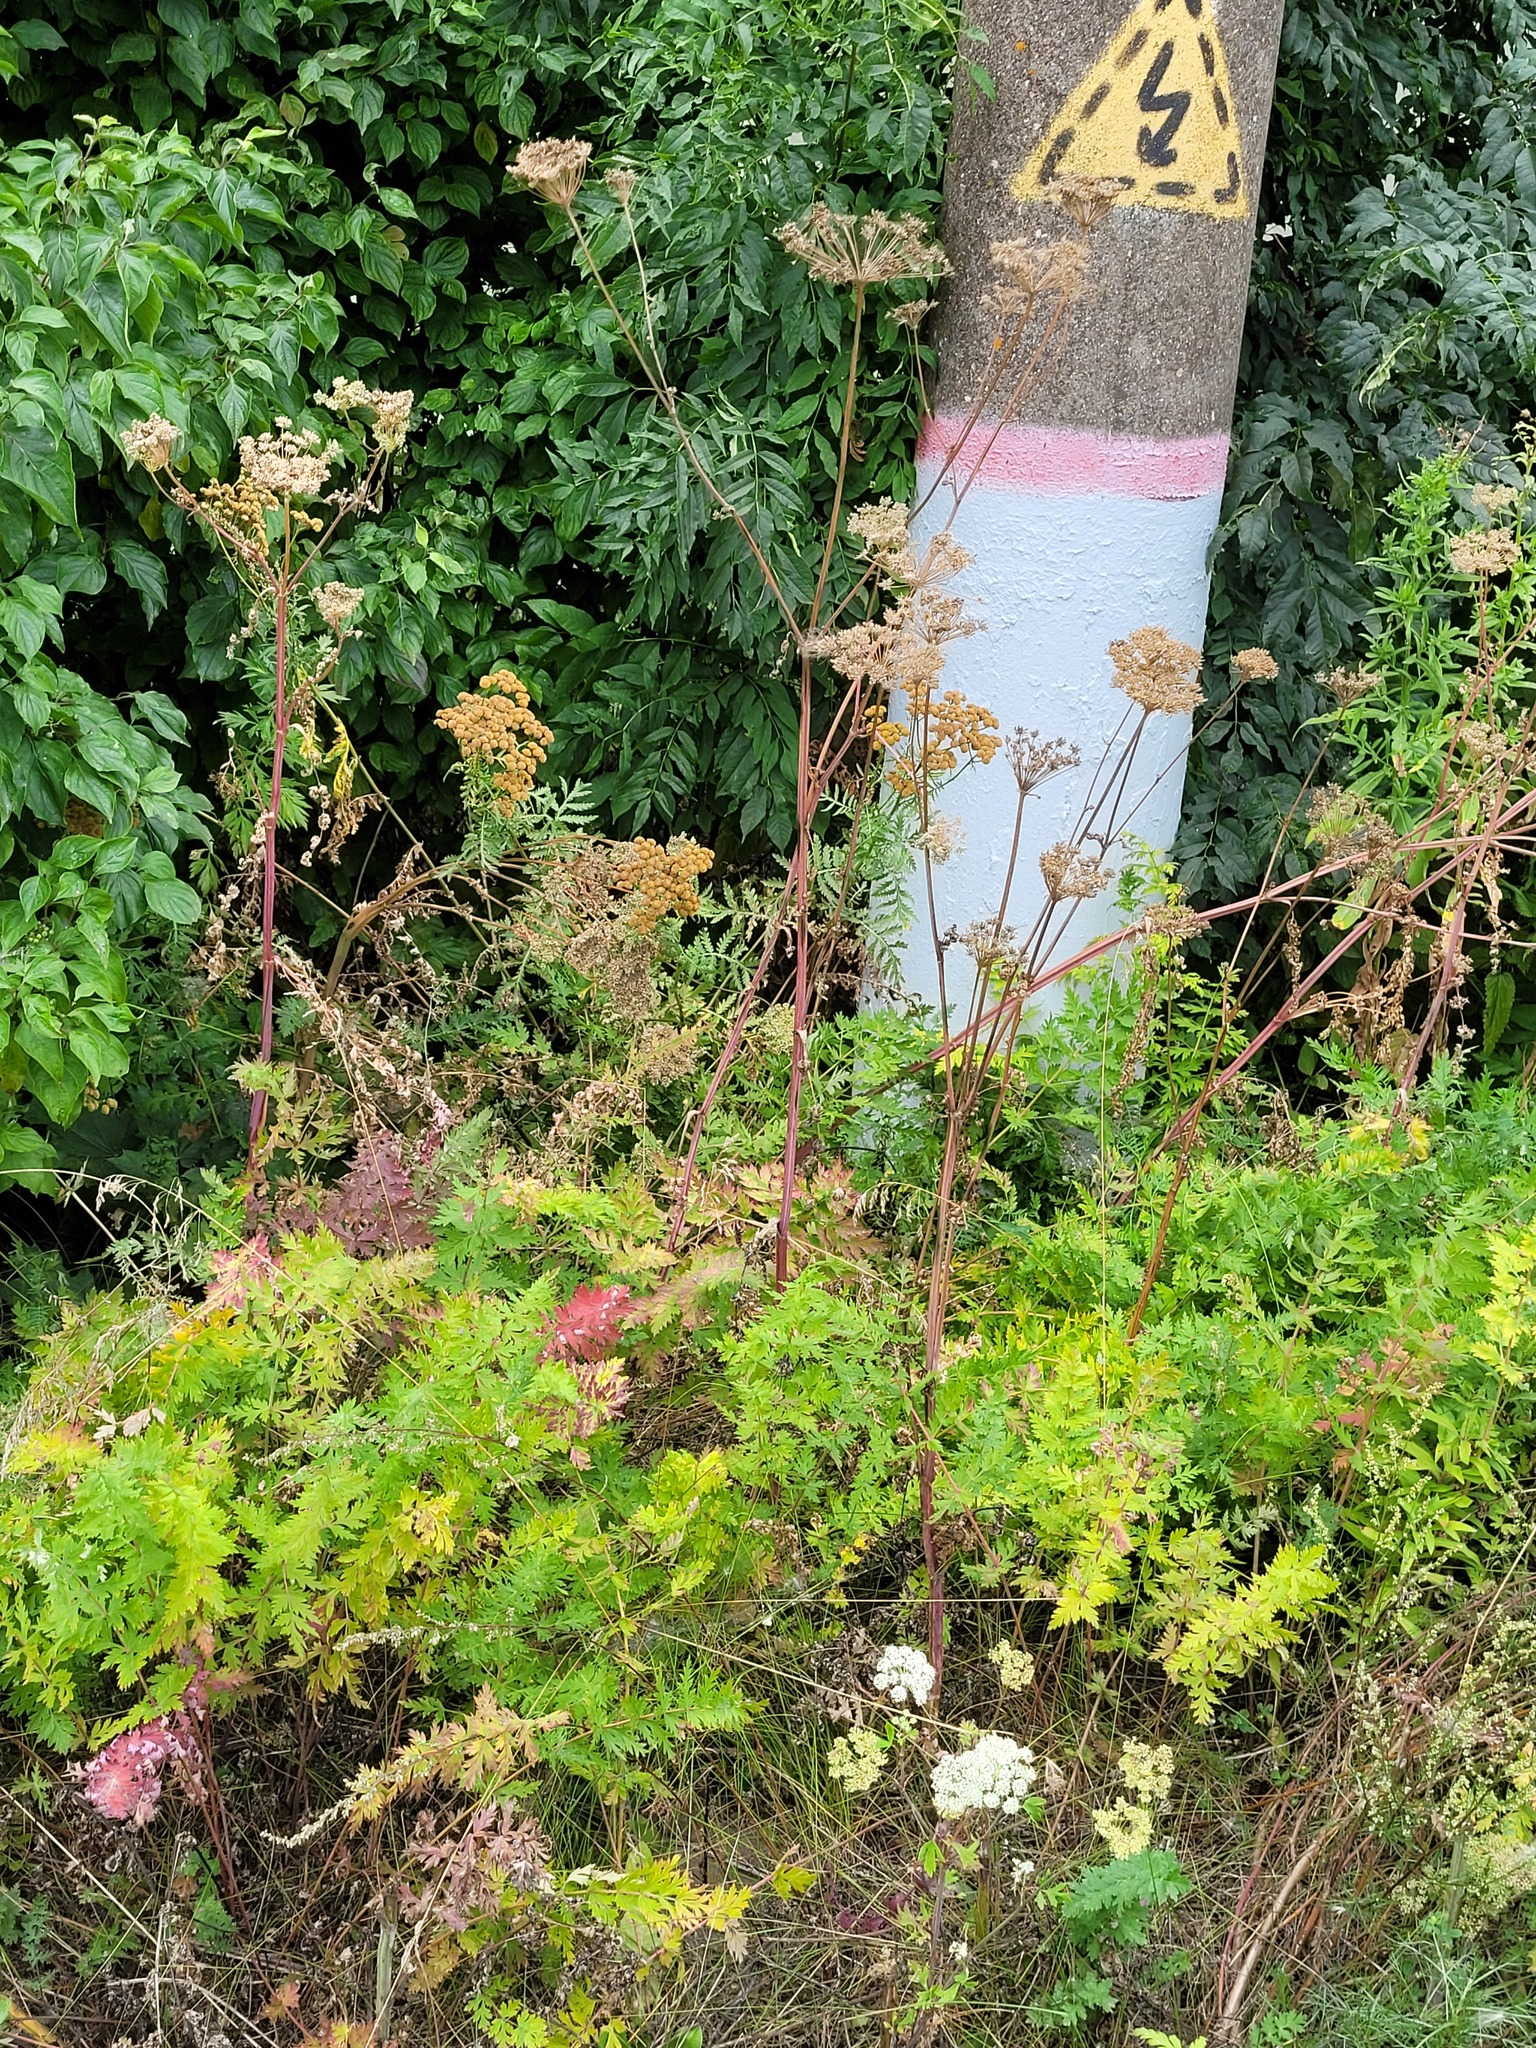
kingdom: Plantae
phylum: Tracheophyta
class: Magnoliopsida
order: Apiales
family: Apiaceae
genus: Seseli
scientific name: Seseli libanotis
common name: Mooncarrot
